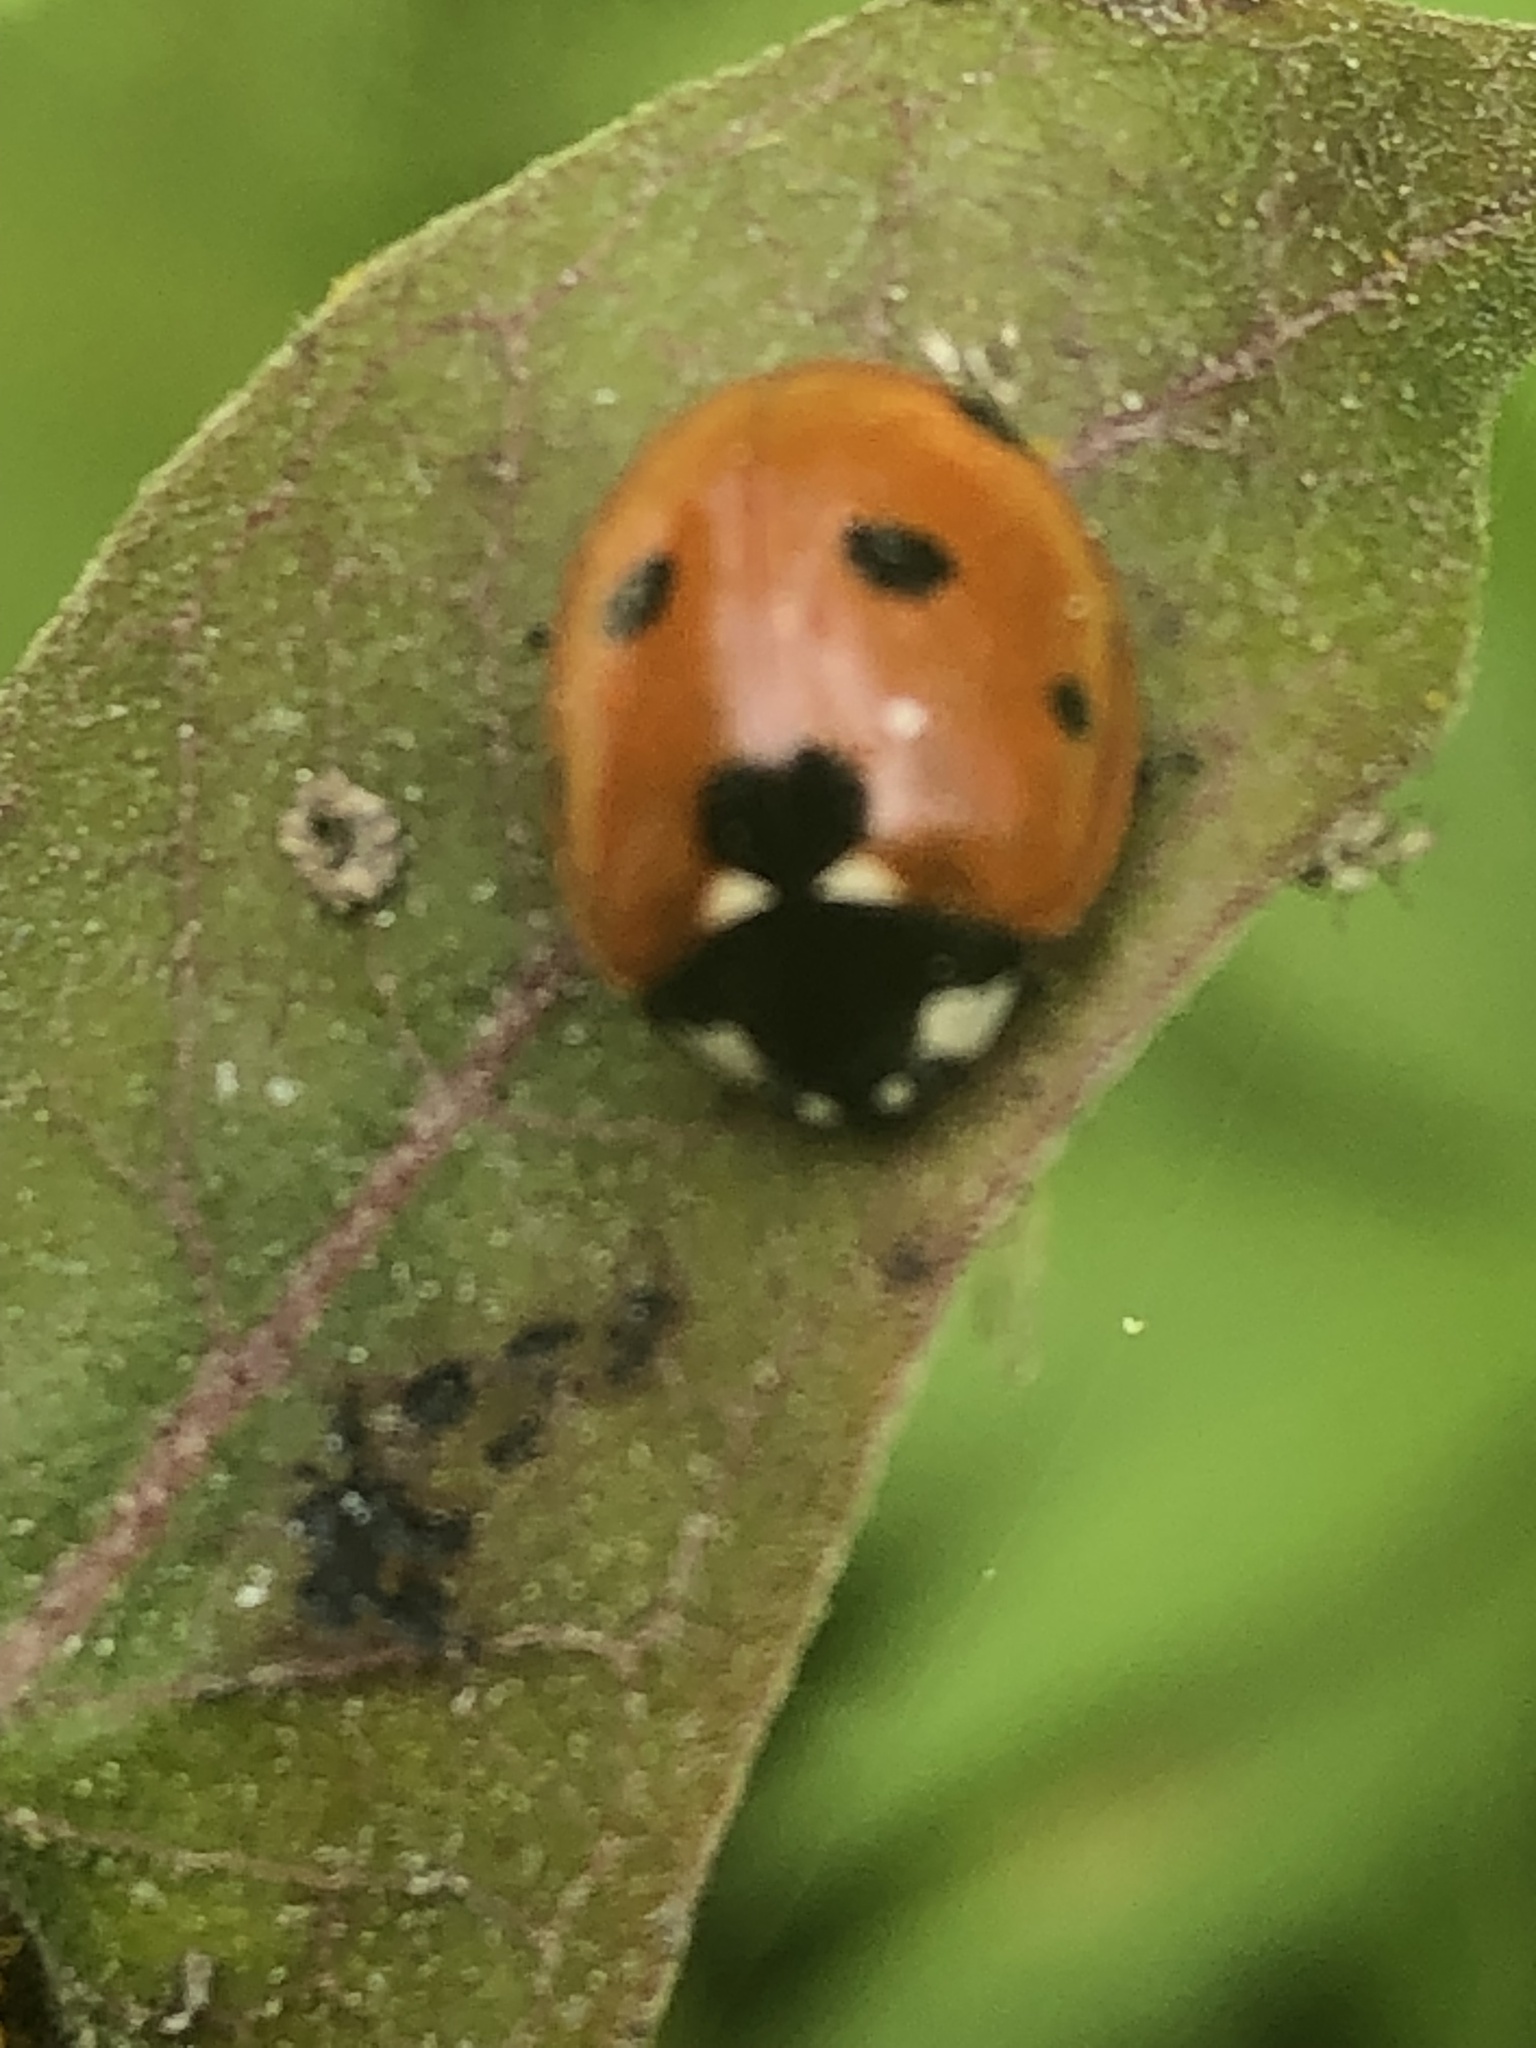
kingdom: Animalia
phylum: Arthropoda
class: Insecta
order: Coleoptera
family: Coccinellidae
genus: Coccinella
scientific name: Coccinella septempunctata
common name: Sevenspotted lady beetle
